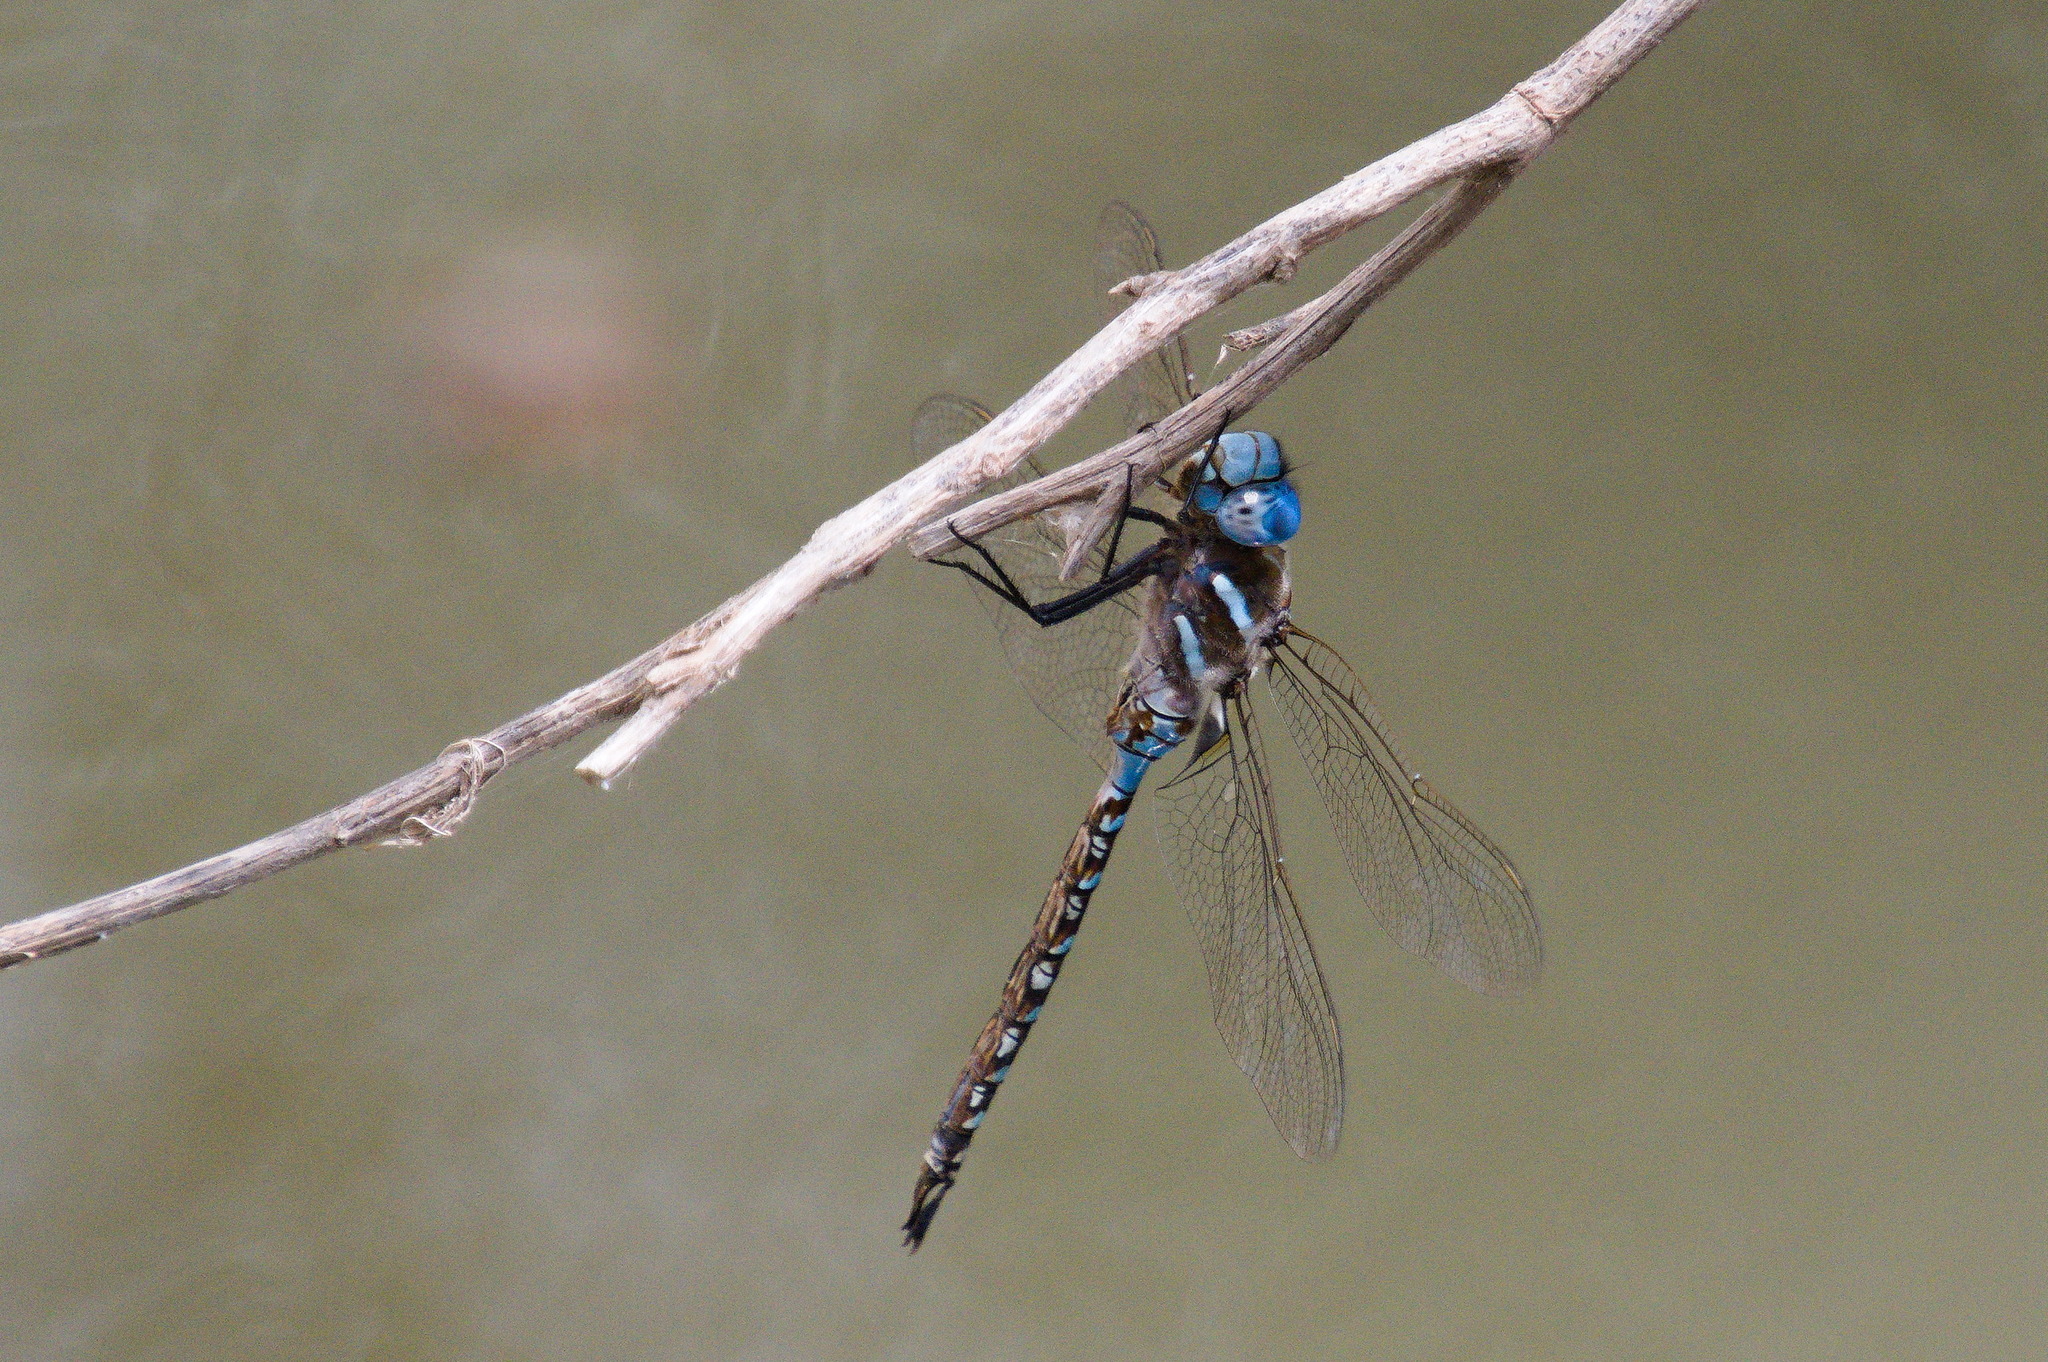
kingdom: Animalia
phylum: Arthropoda
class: Insecta
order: Odonata
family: Aeshnidae
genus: Rhionaeschna
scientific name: Rhionaeschna multicolor
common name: Blue-eyed darner
